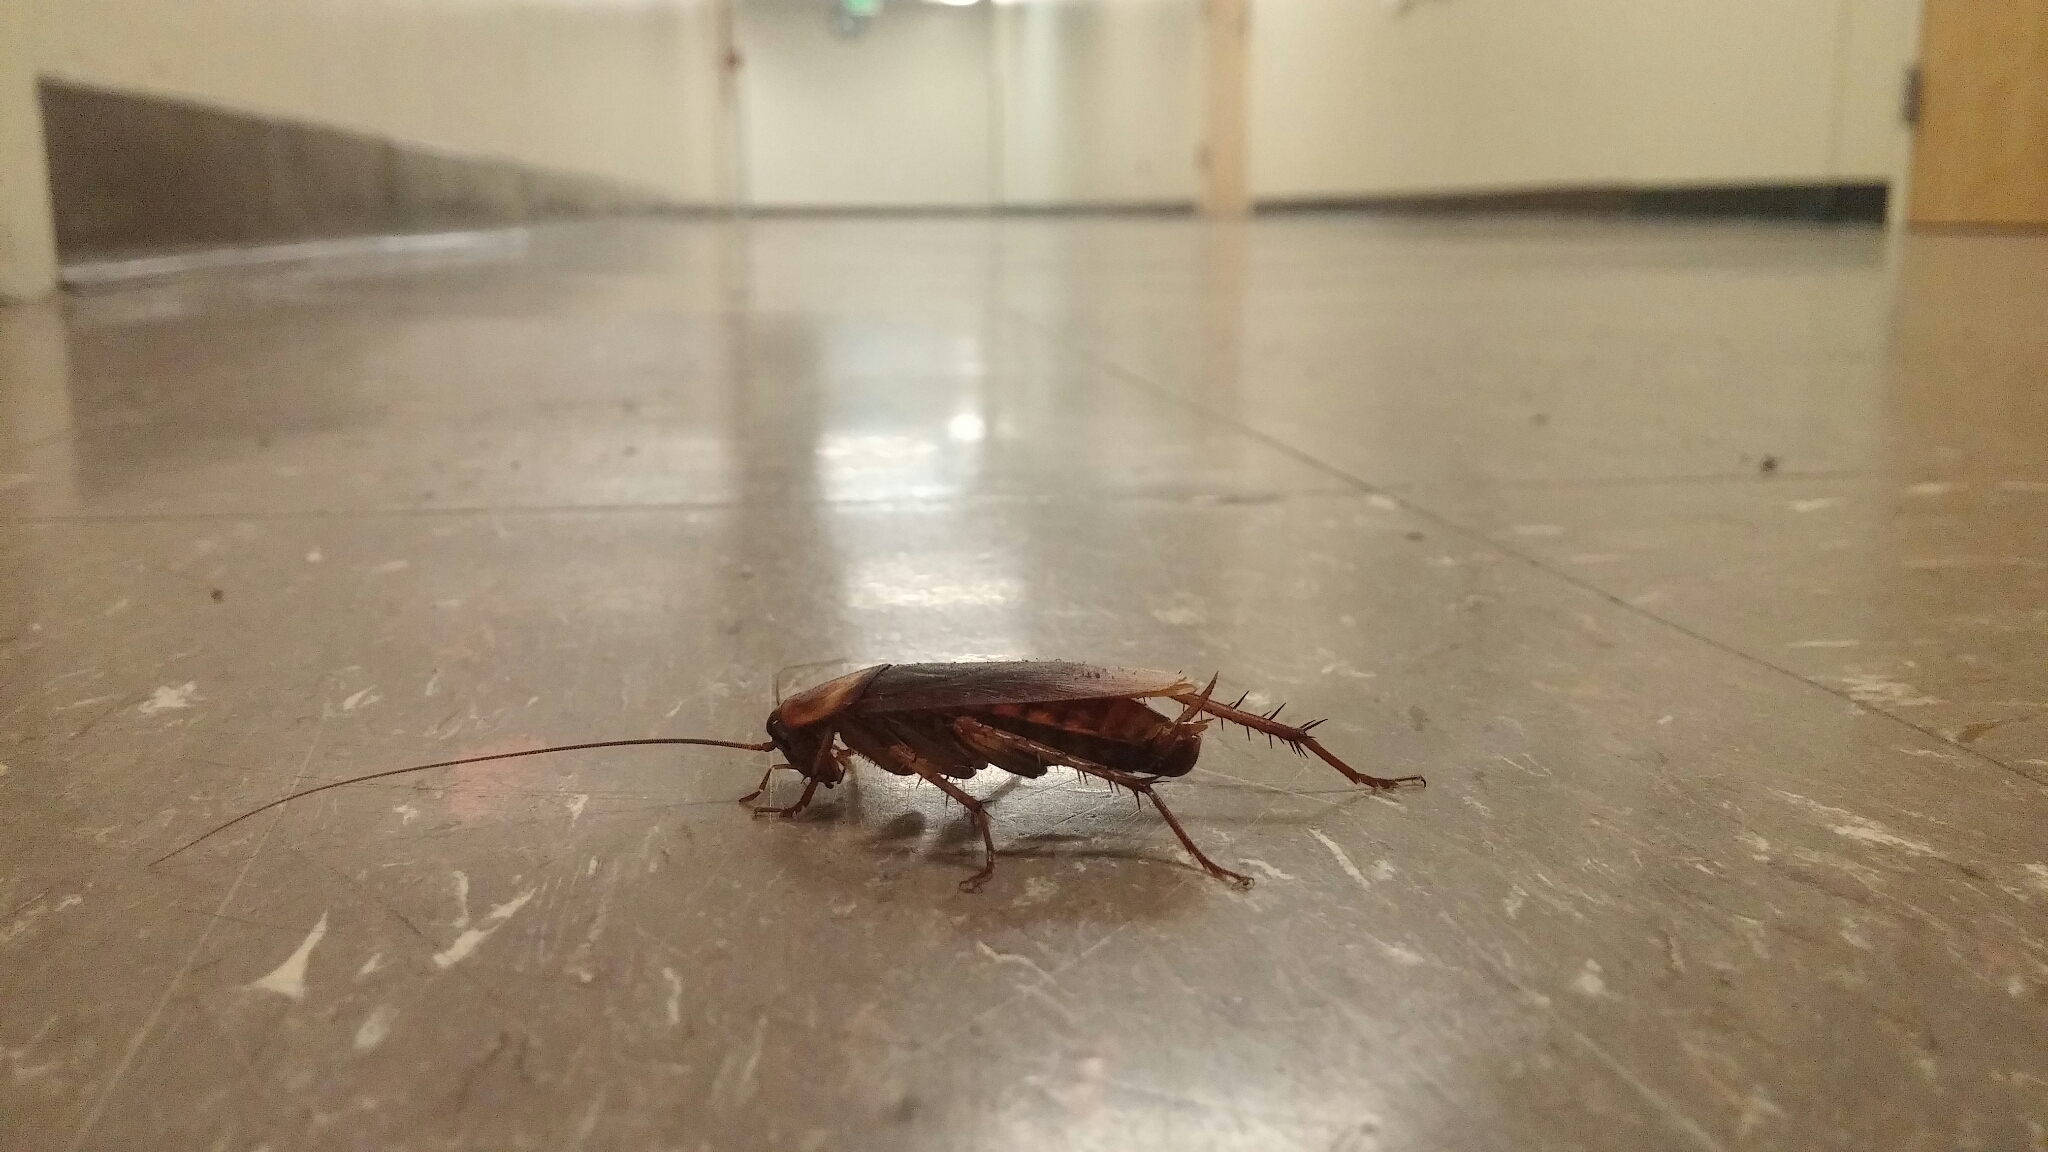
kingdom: Animalia
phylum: Arthropoda
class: Insecta
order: Blattodea
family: Blattidae
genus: Periplaneta
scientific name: Periplaneta americana
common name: American cockroach
